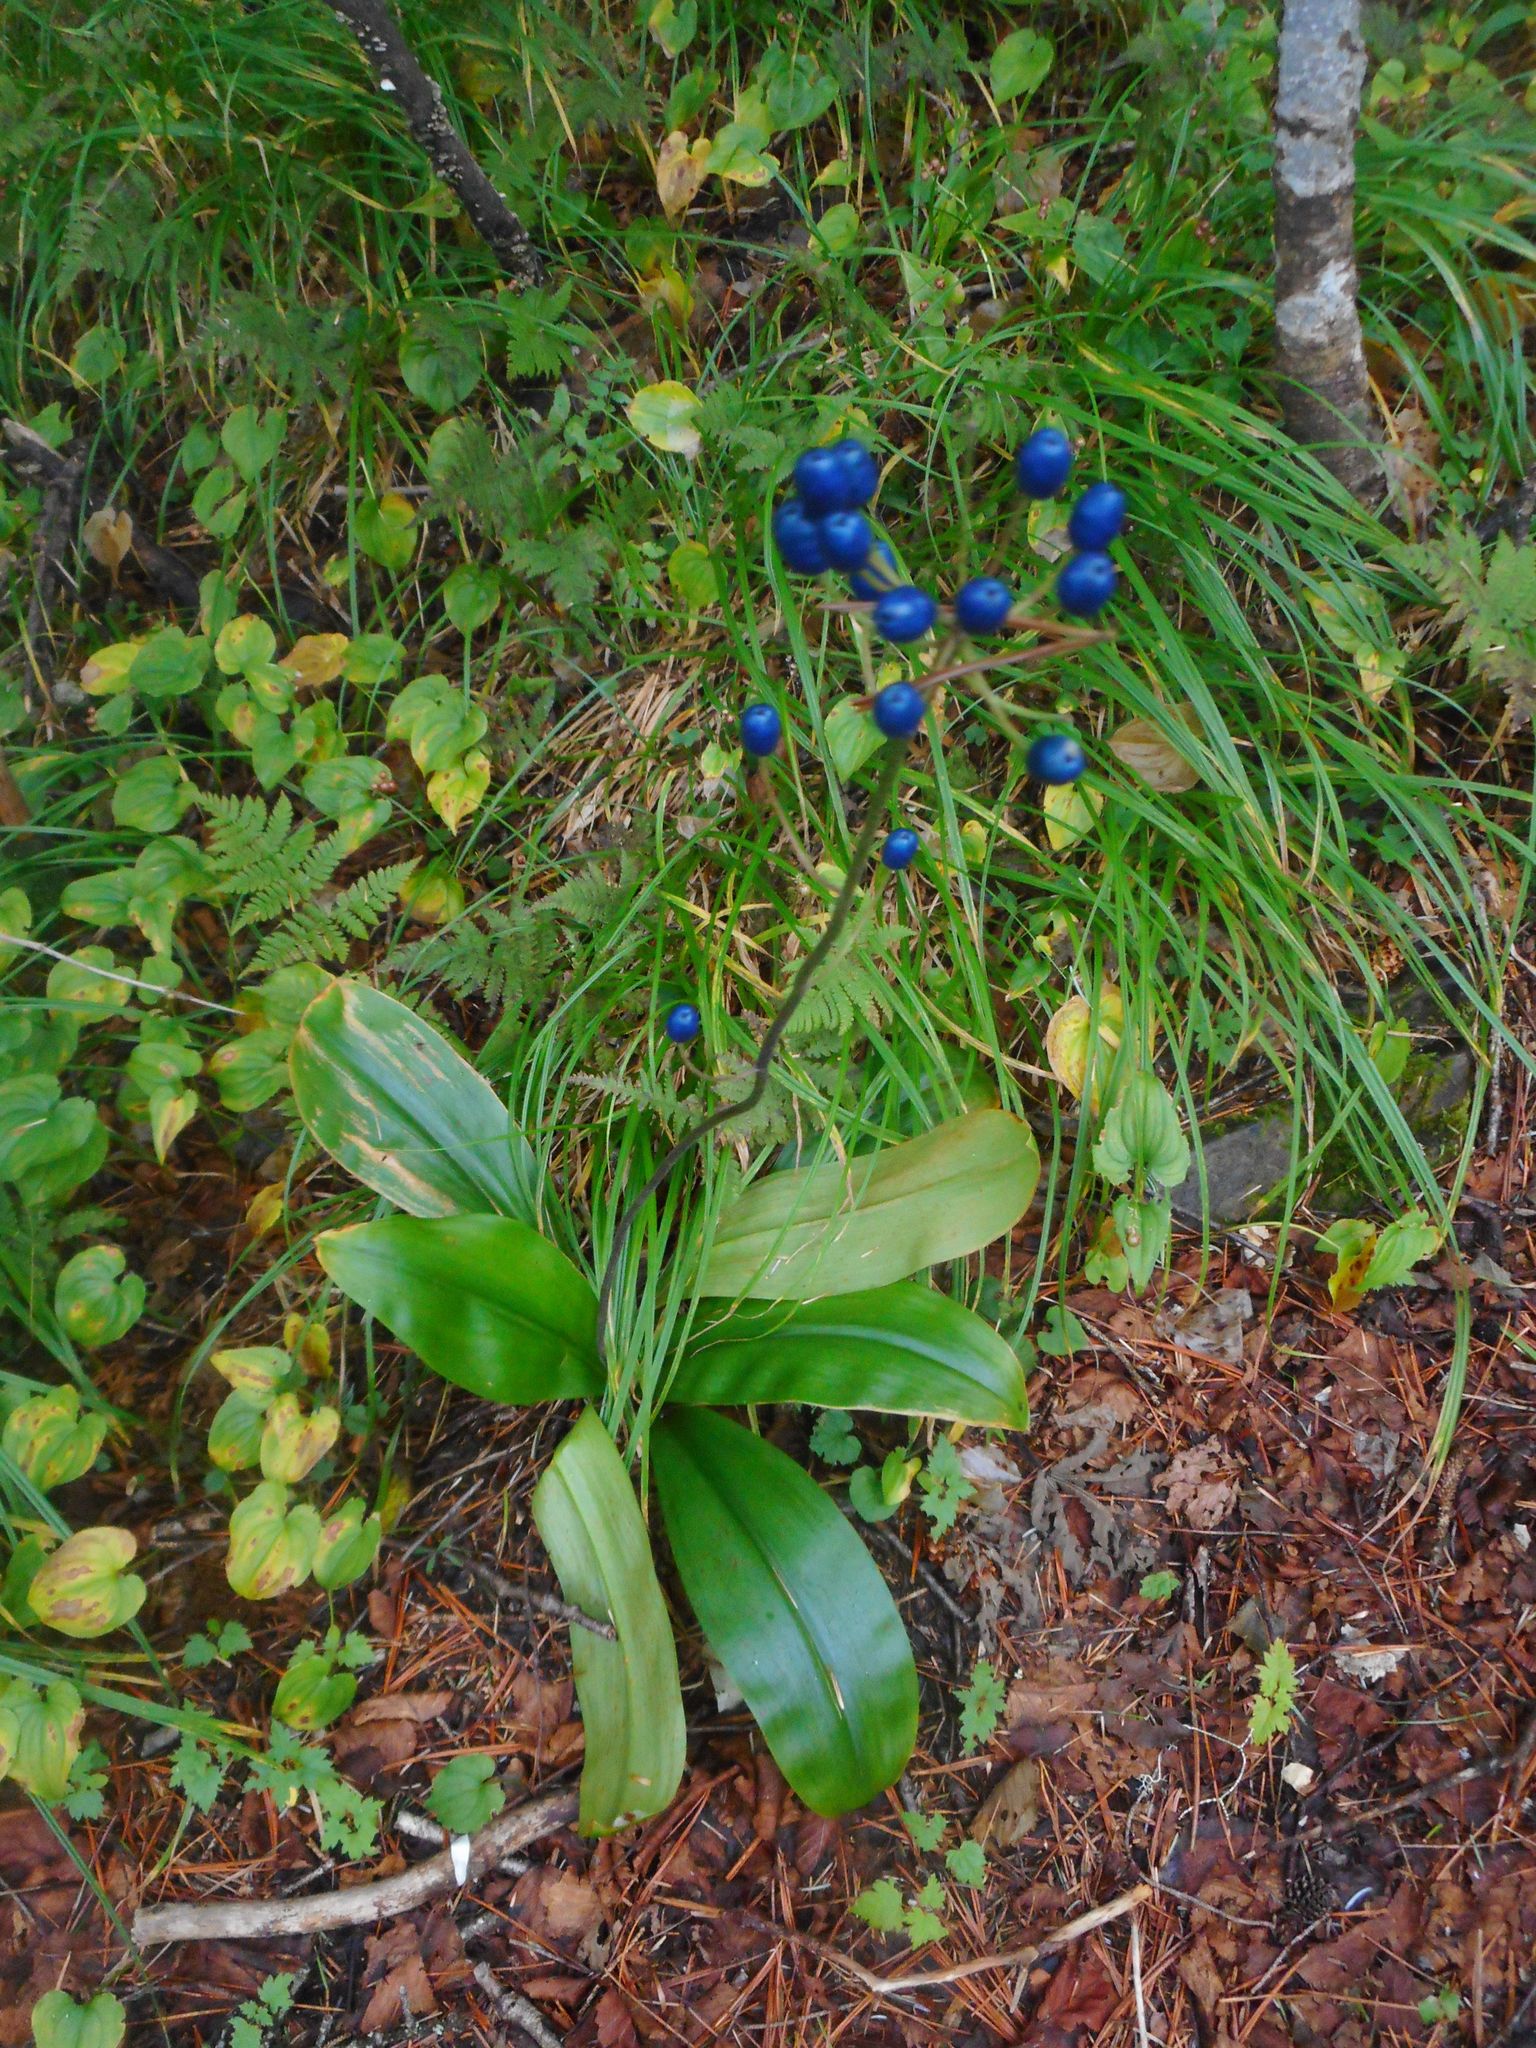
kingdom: Plantae
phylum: Tracheophyta
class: Liliopsida
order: Liliales
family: Liliaceae
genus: Clintonia
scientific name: Clintonia udensis
